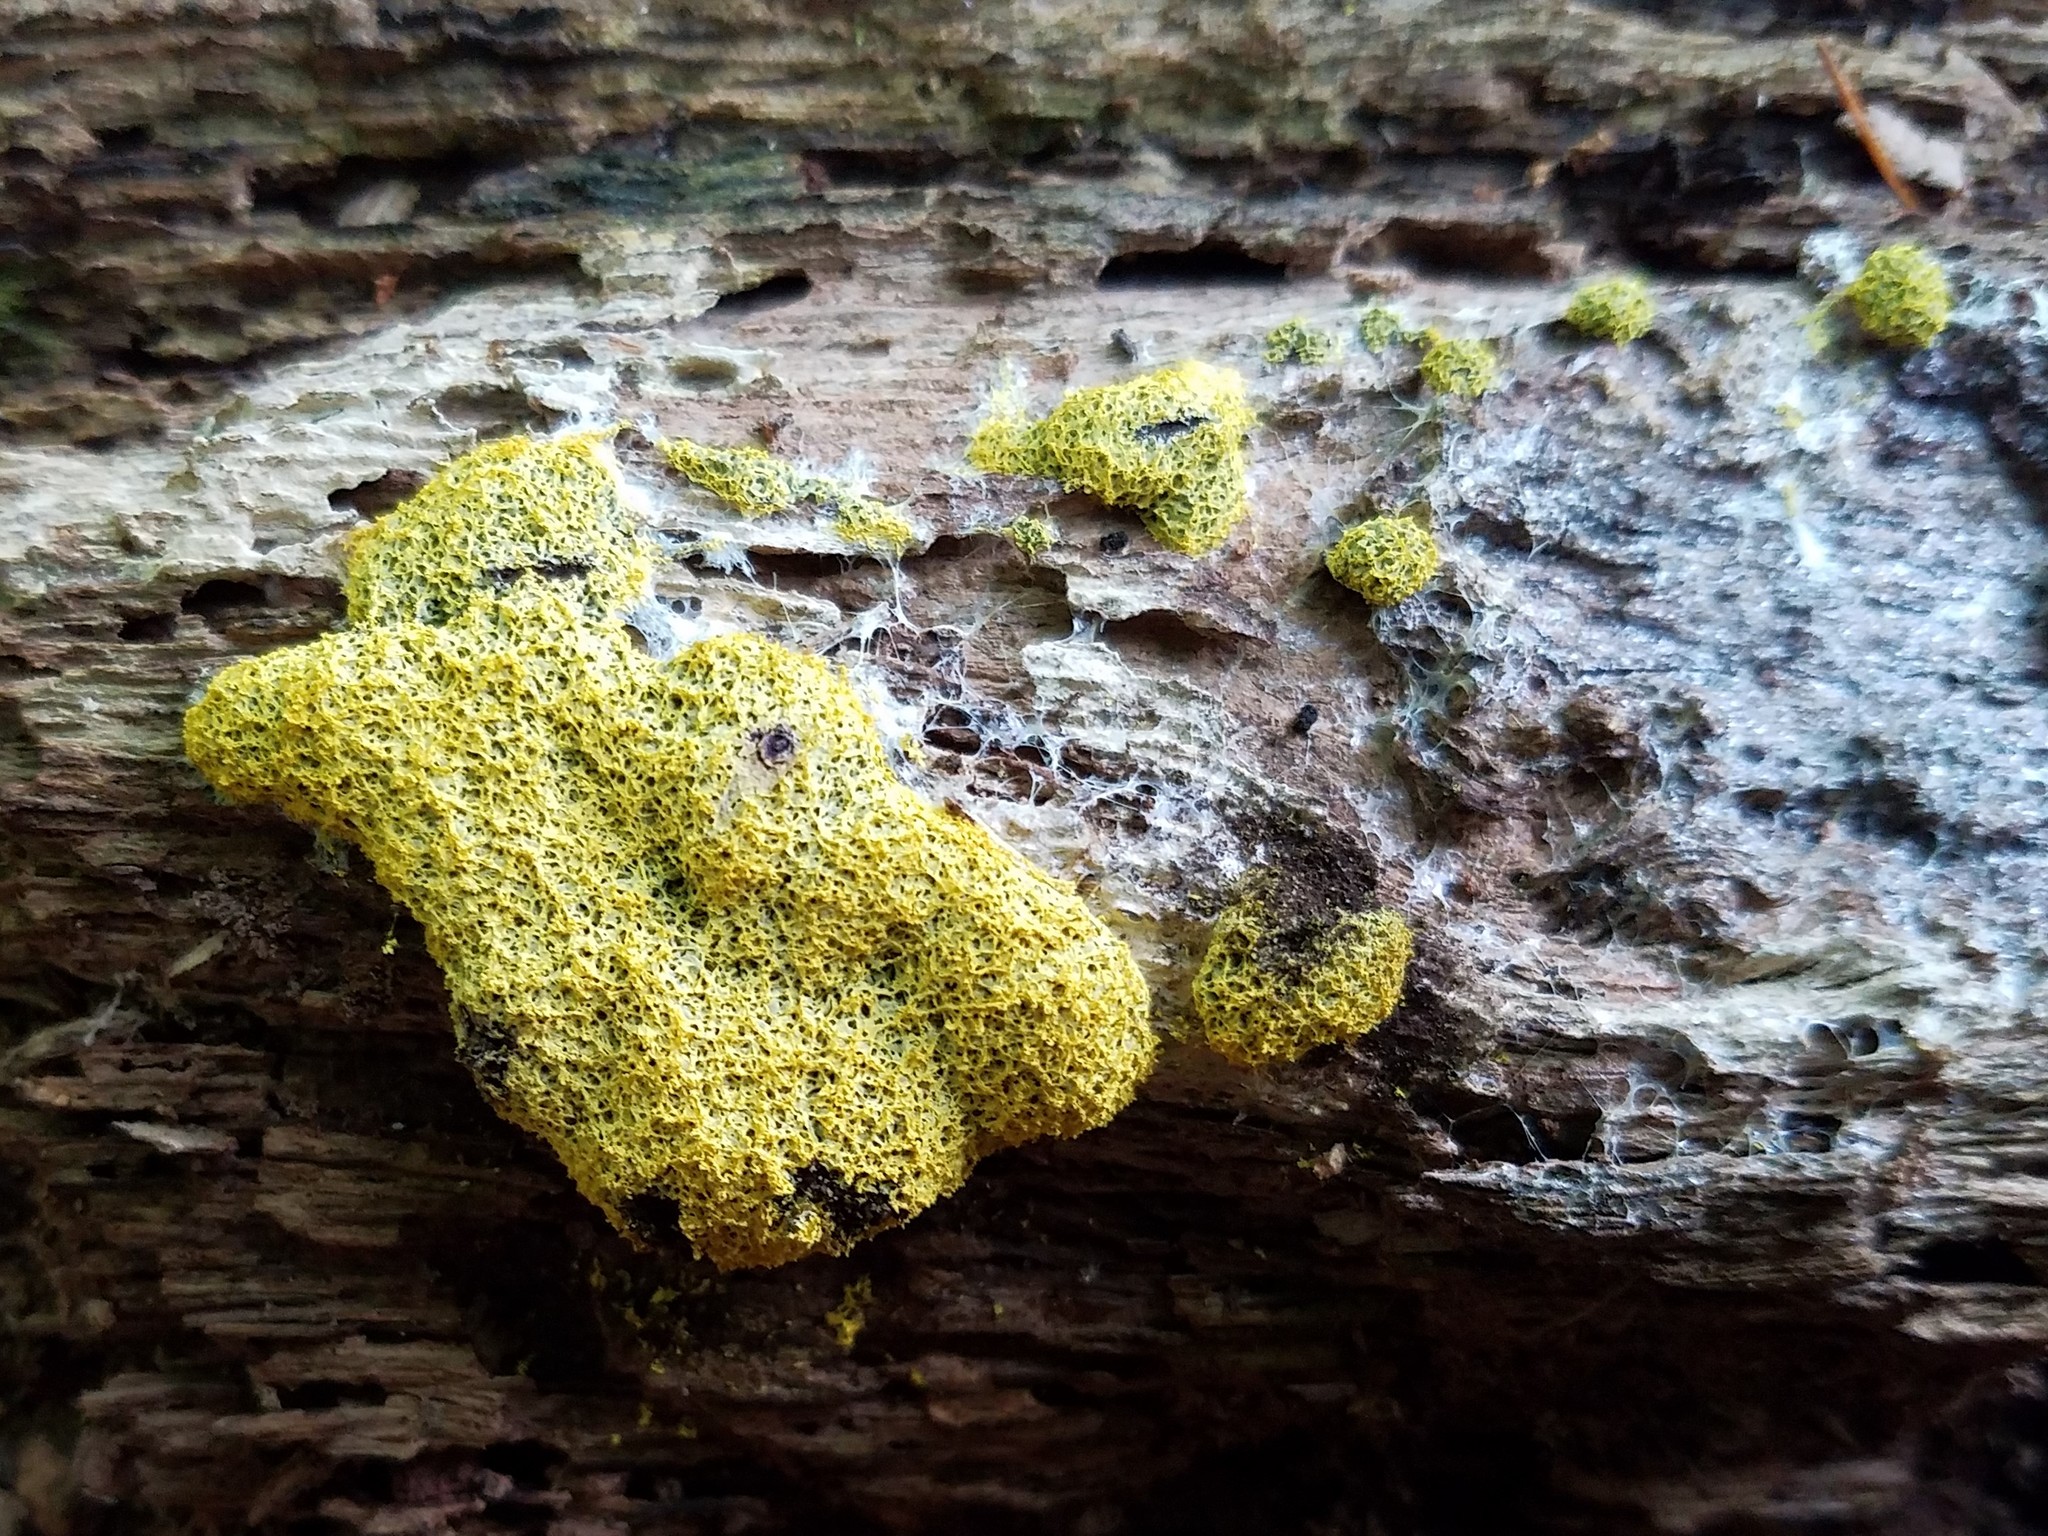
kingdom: Protozoa
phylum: Mycetozoa
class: Myxomycetes
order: Physarales
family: Physaraceae
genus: Fuligo
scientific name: Fuligo septica
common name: Dog vomit slime mold
